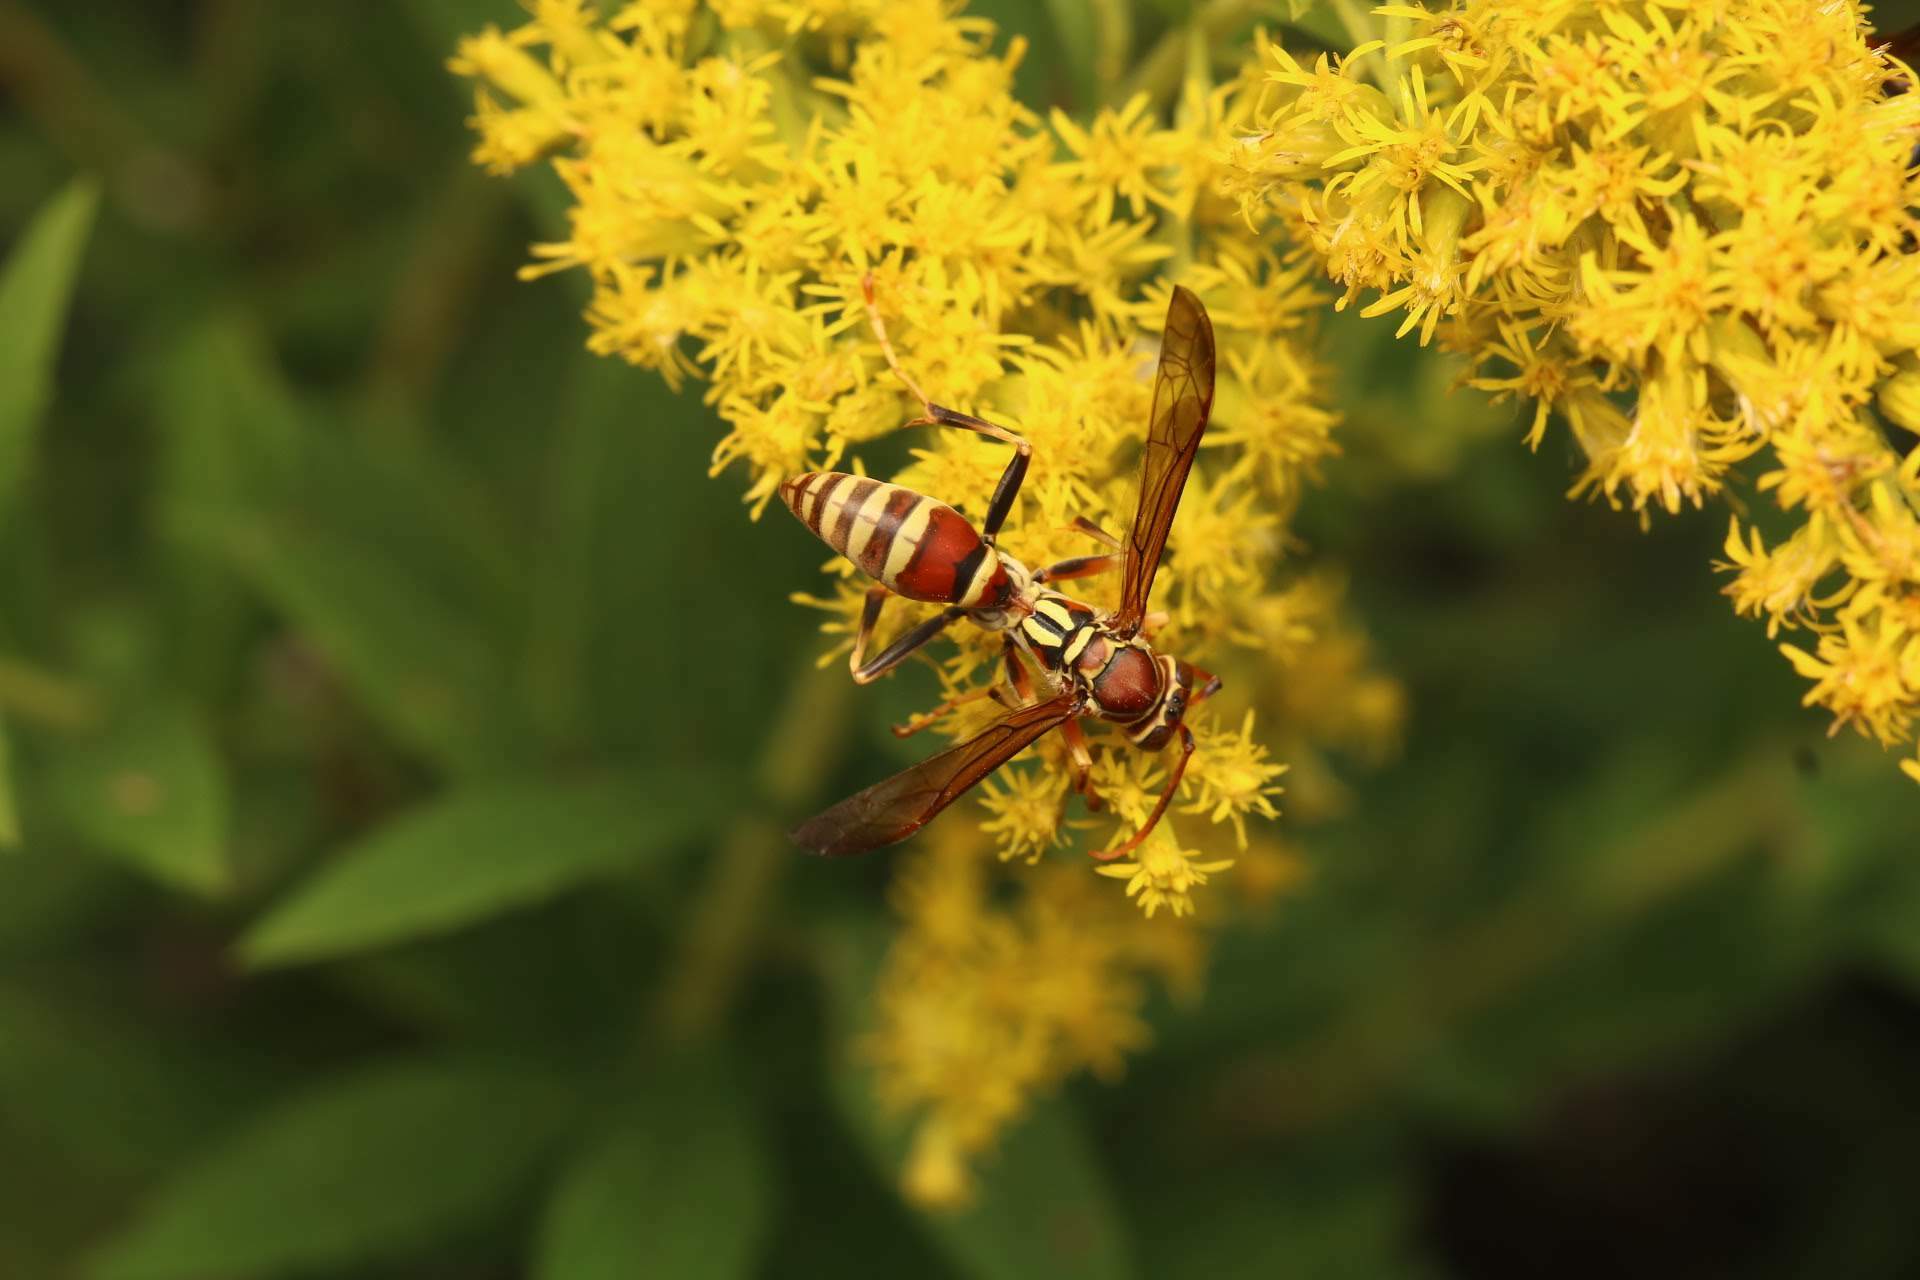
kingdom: Animalia
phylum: Arthropoda
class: Insecta
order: Hymenoptera
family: Eumenidae
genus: Polistes
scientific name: Polistes exclamans
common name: Paper wasp
